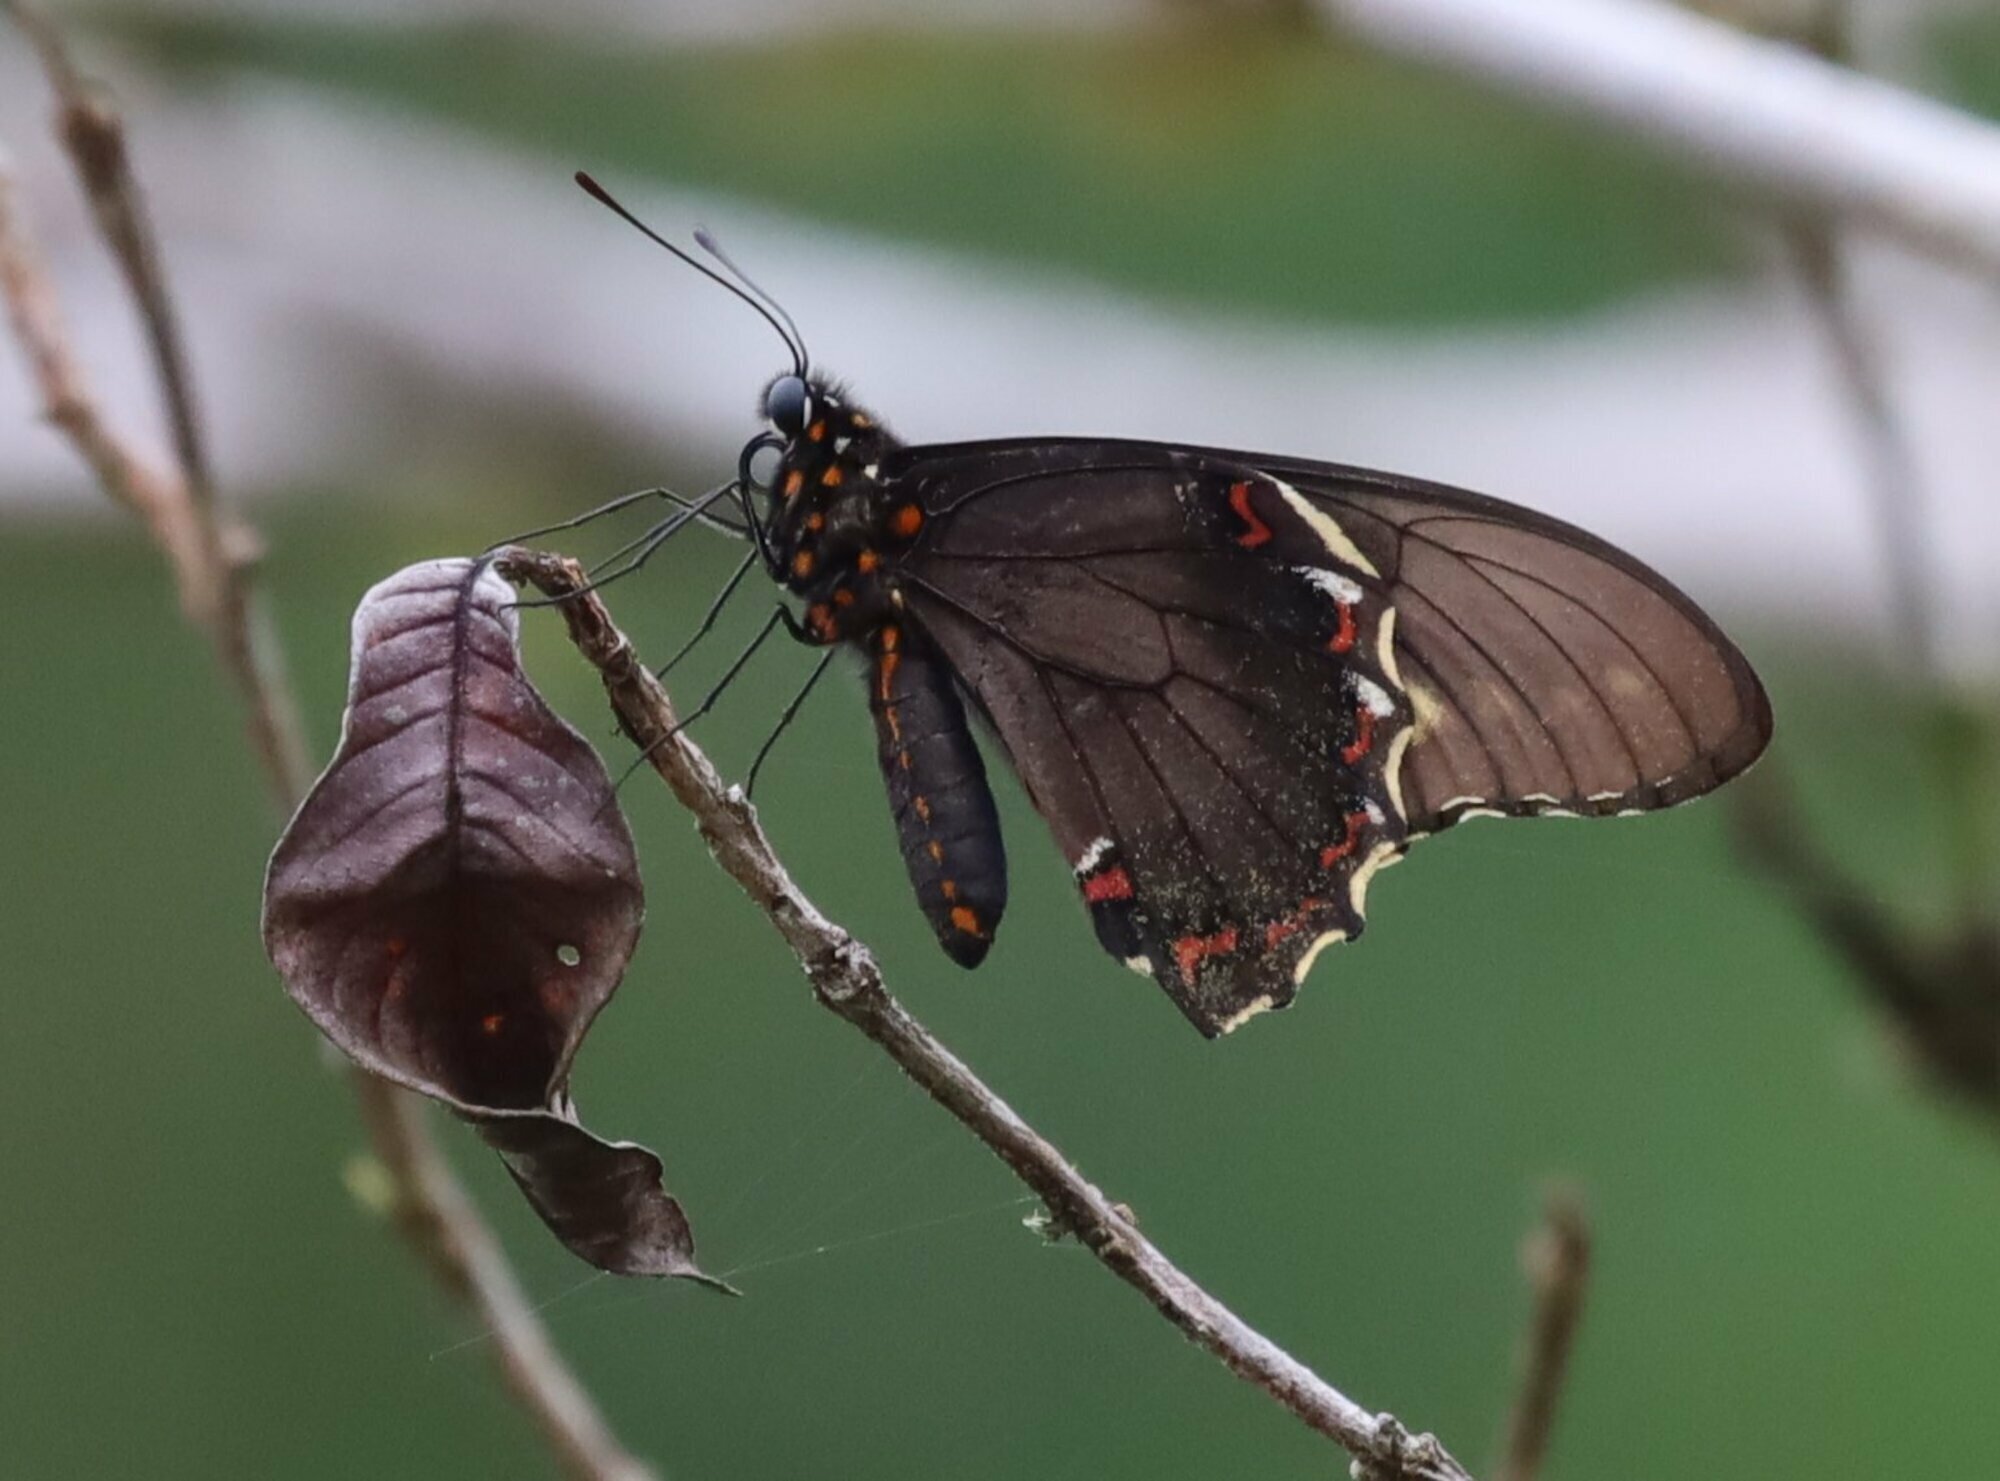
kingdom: Animalia
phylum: Arthropoda
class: Insecta
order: Lepidoptera
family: Papilionidae
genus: Battus
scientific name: Battus polydamas
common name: Polydamas swallowtail
